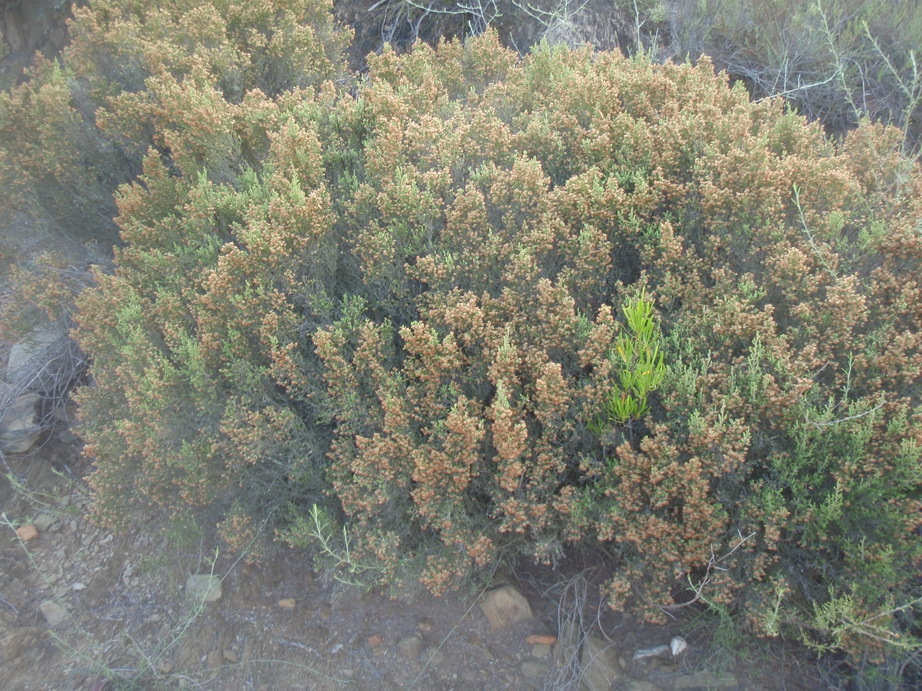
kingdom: Plantae
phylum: Tracheophyta
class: Magnoliopsida
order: Ericales
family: Ericaceae
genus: Erica
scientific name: Erica uberiflora
